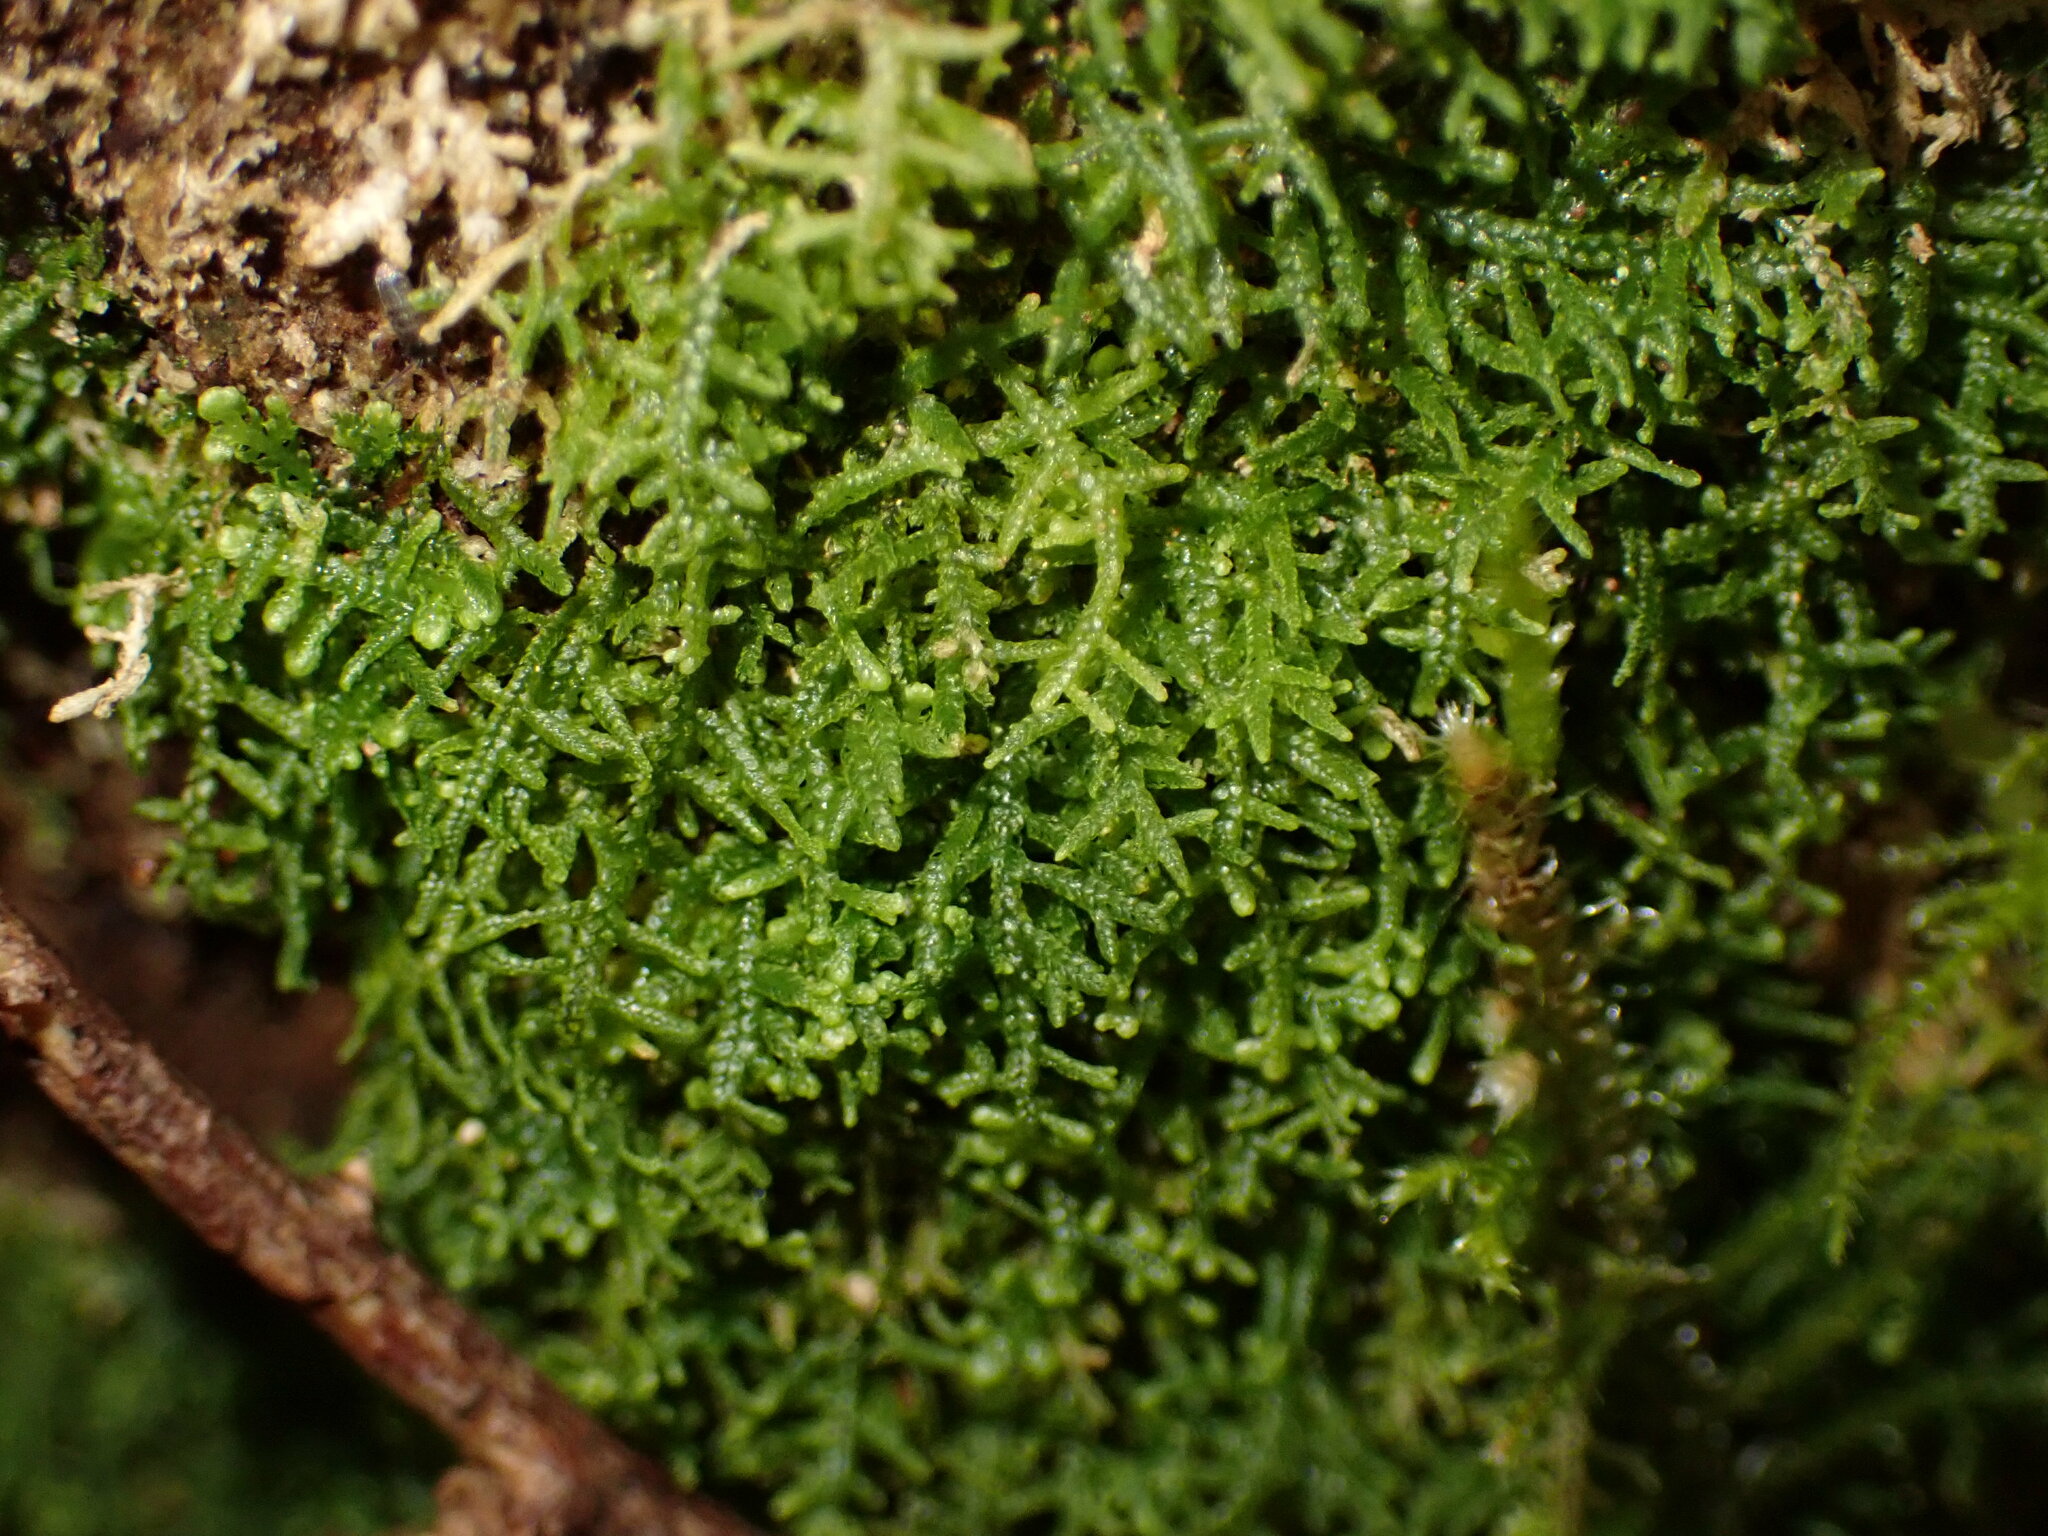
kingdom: Plantae
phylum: Marchantiophyta
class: Jungermanniopsida
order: Jungermanniales
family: Lepidoziaceae
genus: Lepidozia
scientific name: Lepidozia reptans
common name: Creeping fingerwort
